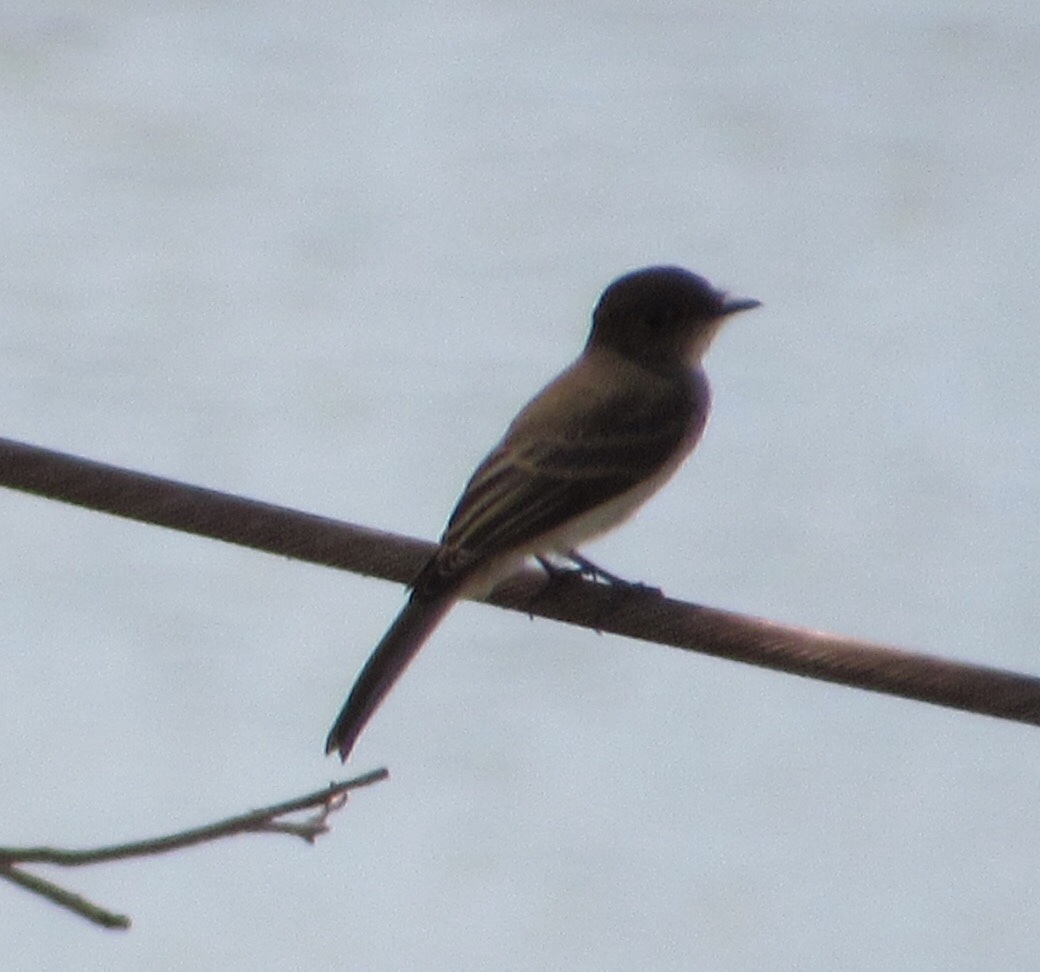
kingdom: Animalia
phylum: Chordata
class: Aves
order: Passeriformes
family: Tyrannidae
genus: Sayornis
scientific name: Sayornis phoebe
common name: Eastern phoebe
